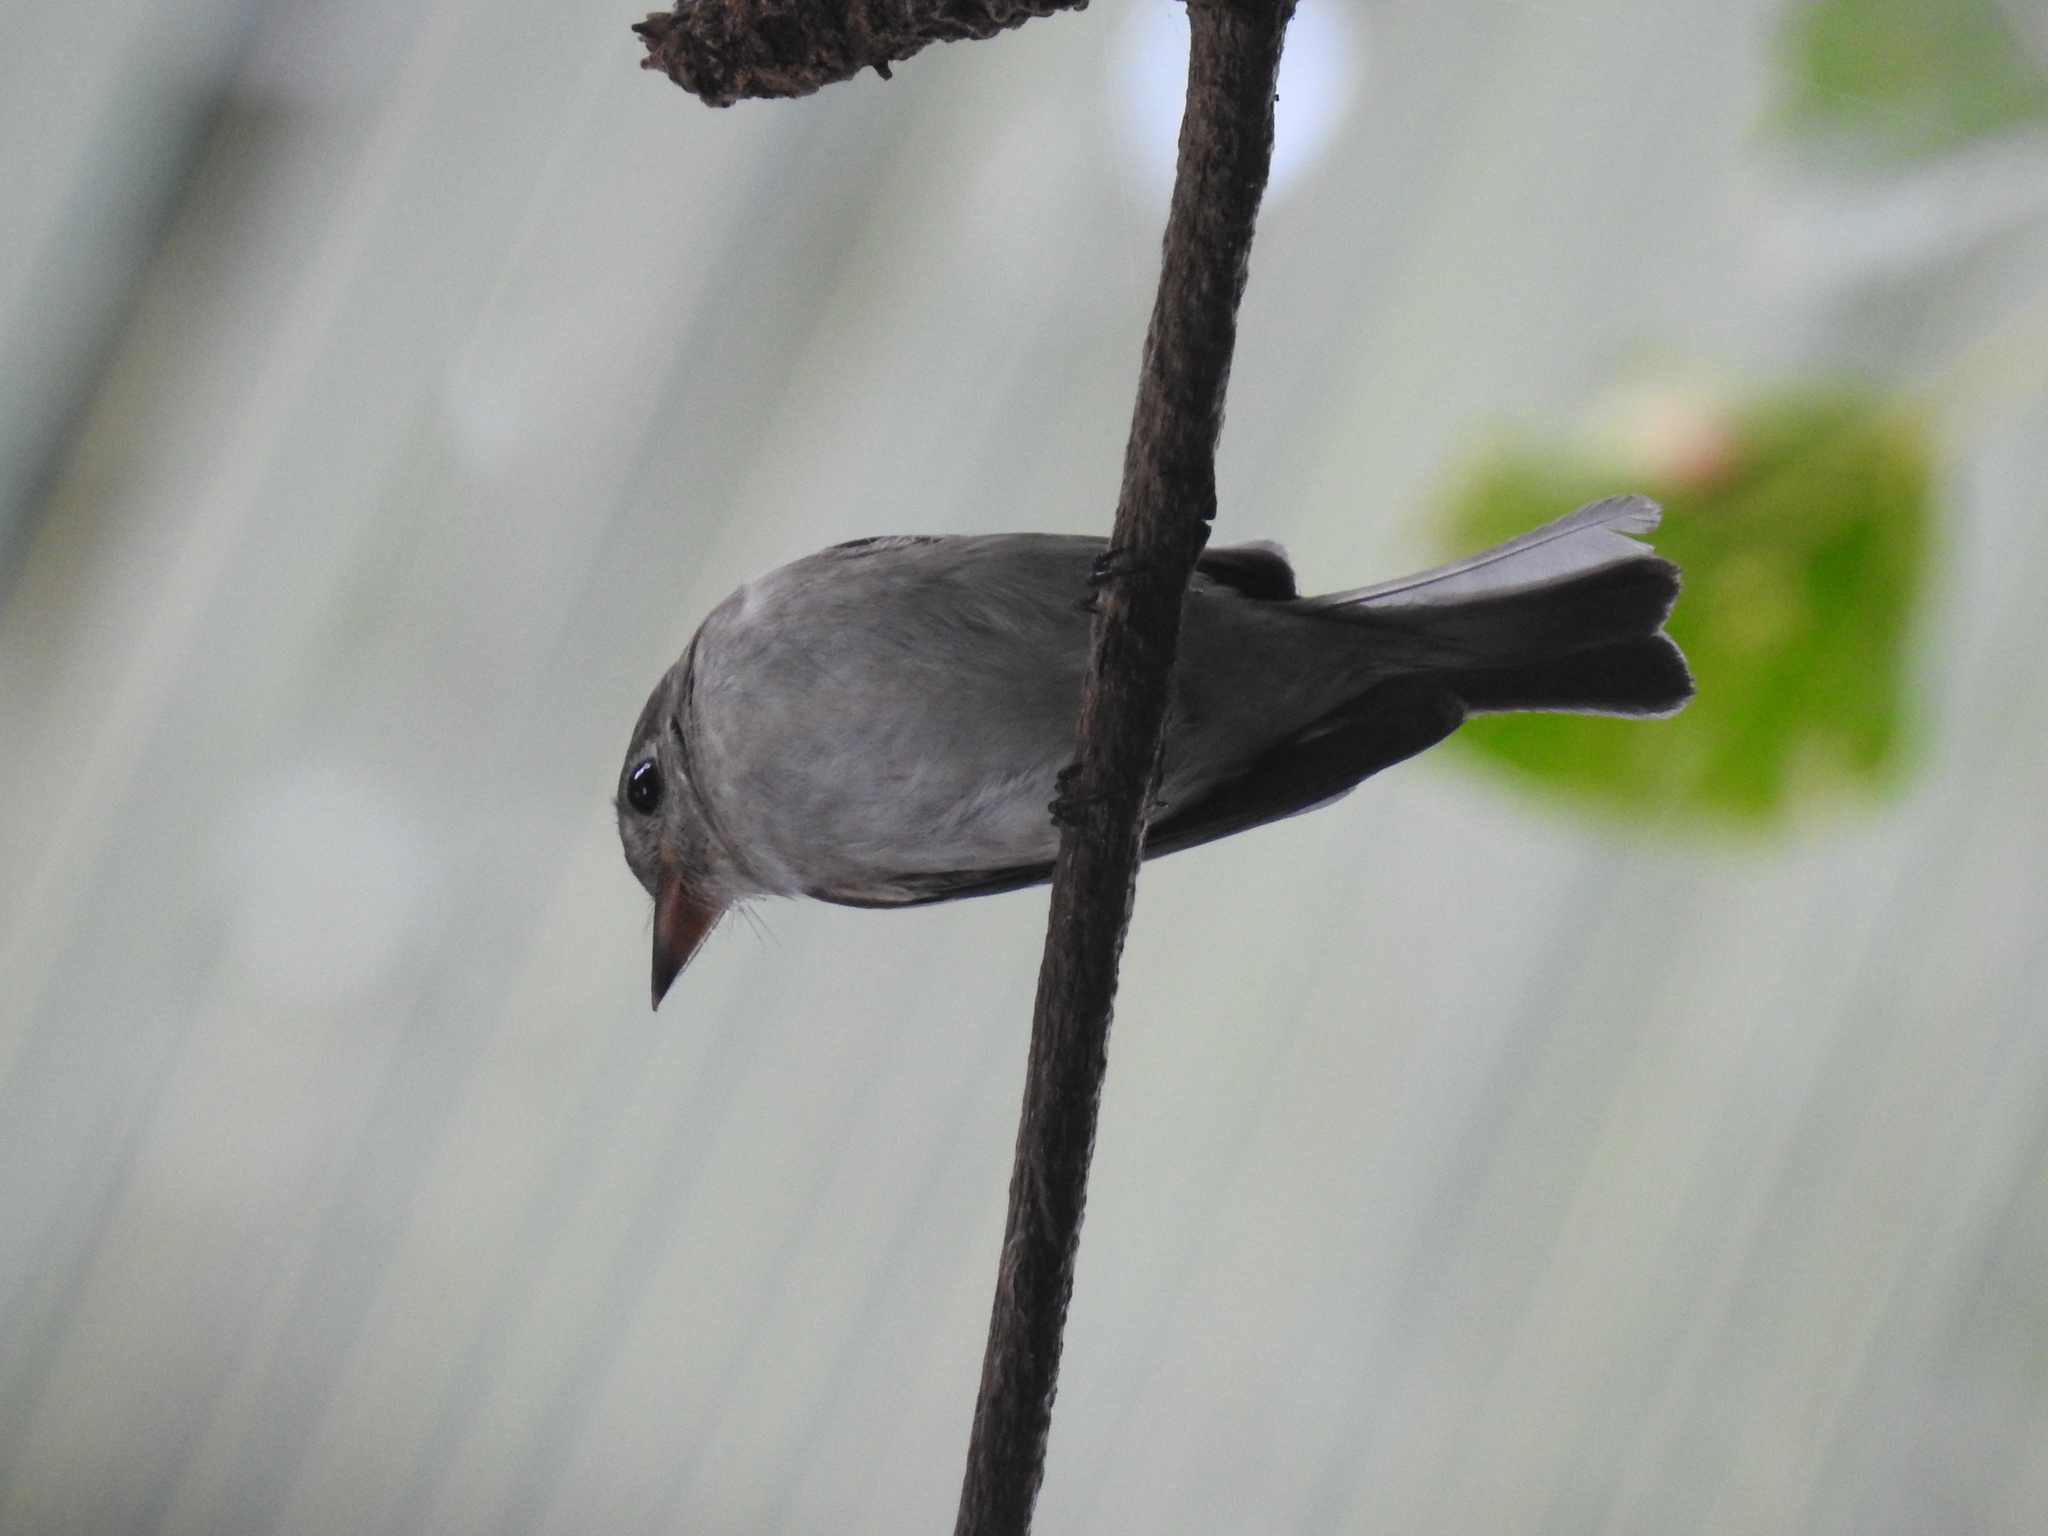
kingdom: Animalia
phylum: Chordata
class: Aves
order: Passeriformes
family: Muscicapidae
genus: Muscicapa
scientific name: Muscicapa latirostris
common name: Asian brown flycatcher
